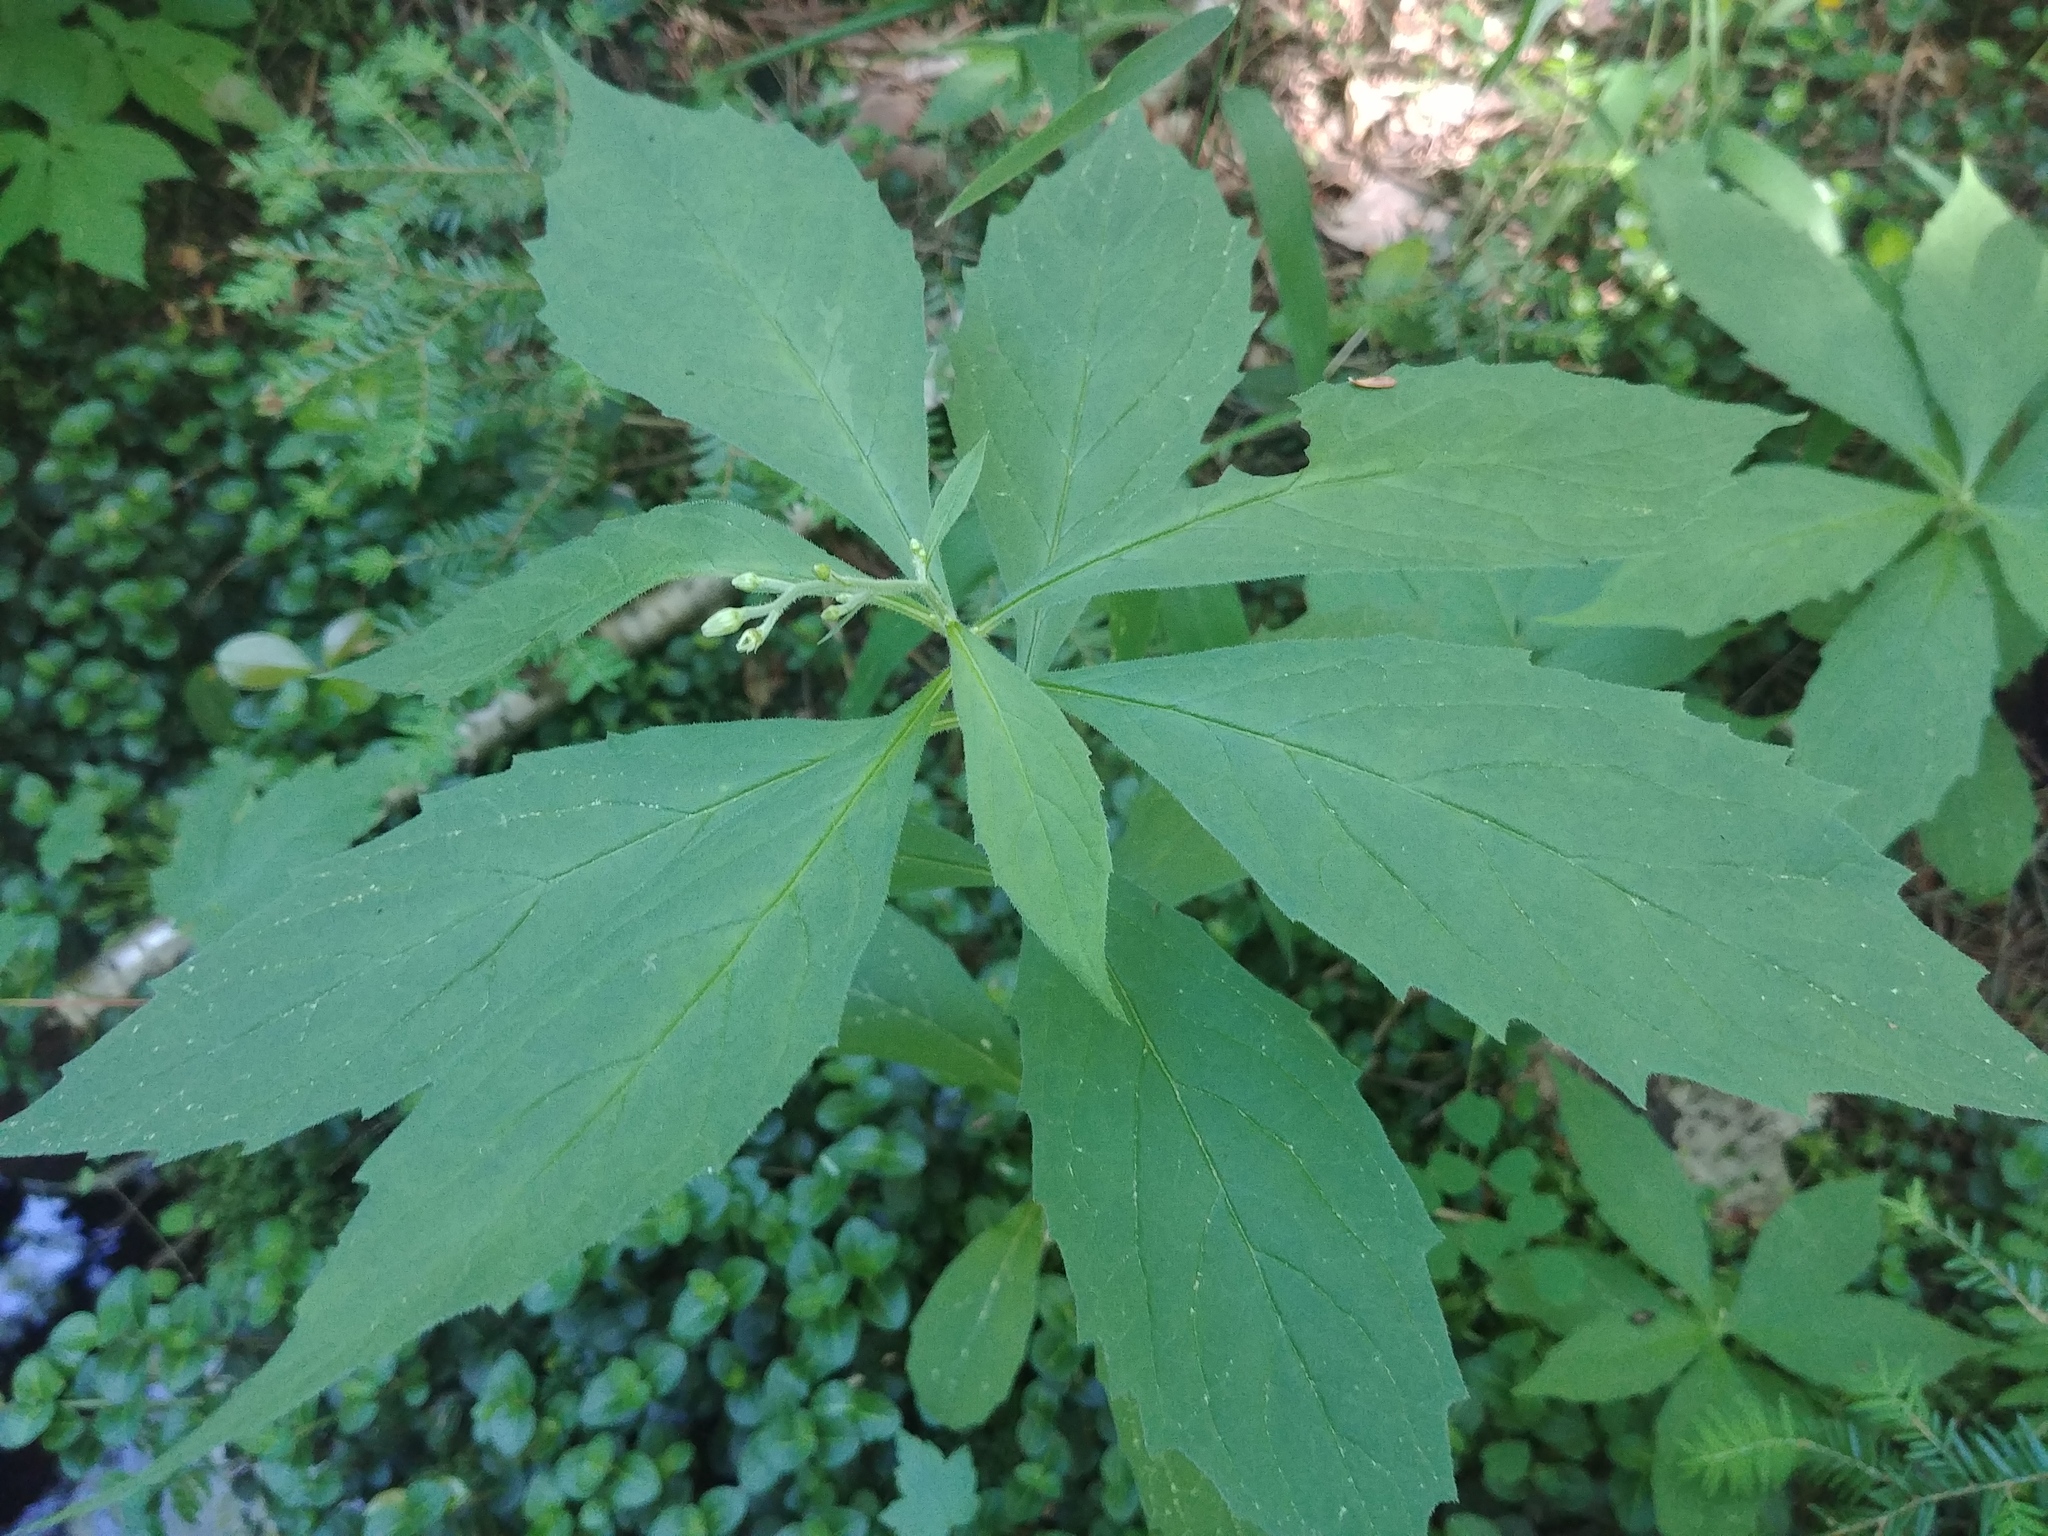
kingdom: Plantae
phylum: Tracheophyta
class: Magnoliopsida
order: Asterales
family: Asteraceae
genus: Oclemena
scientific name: Oclemena acuminata
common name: Mountain aster
